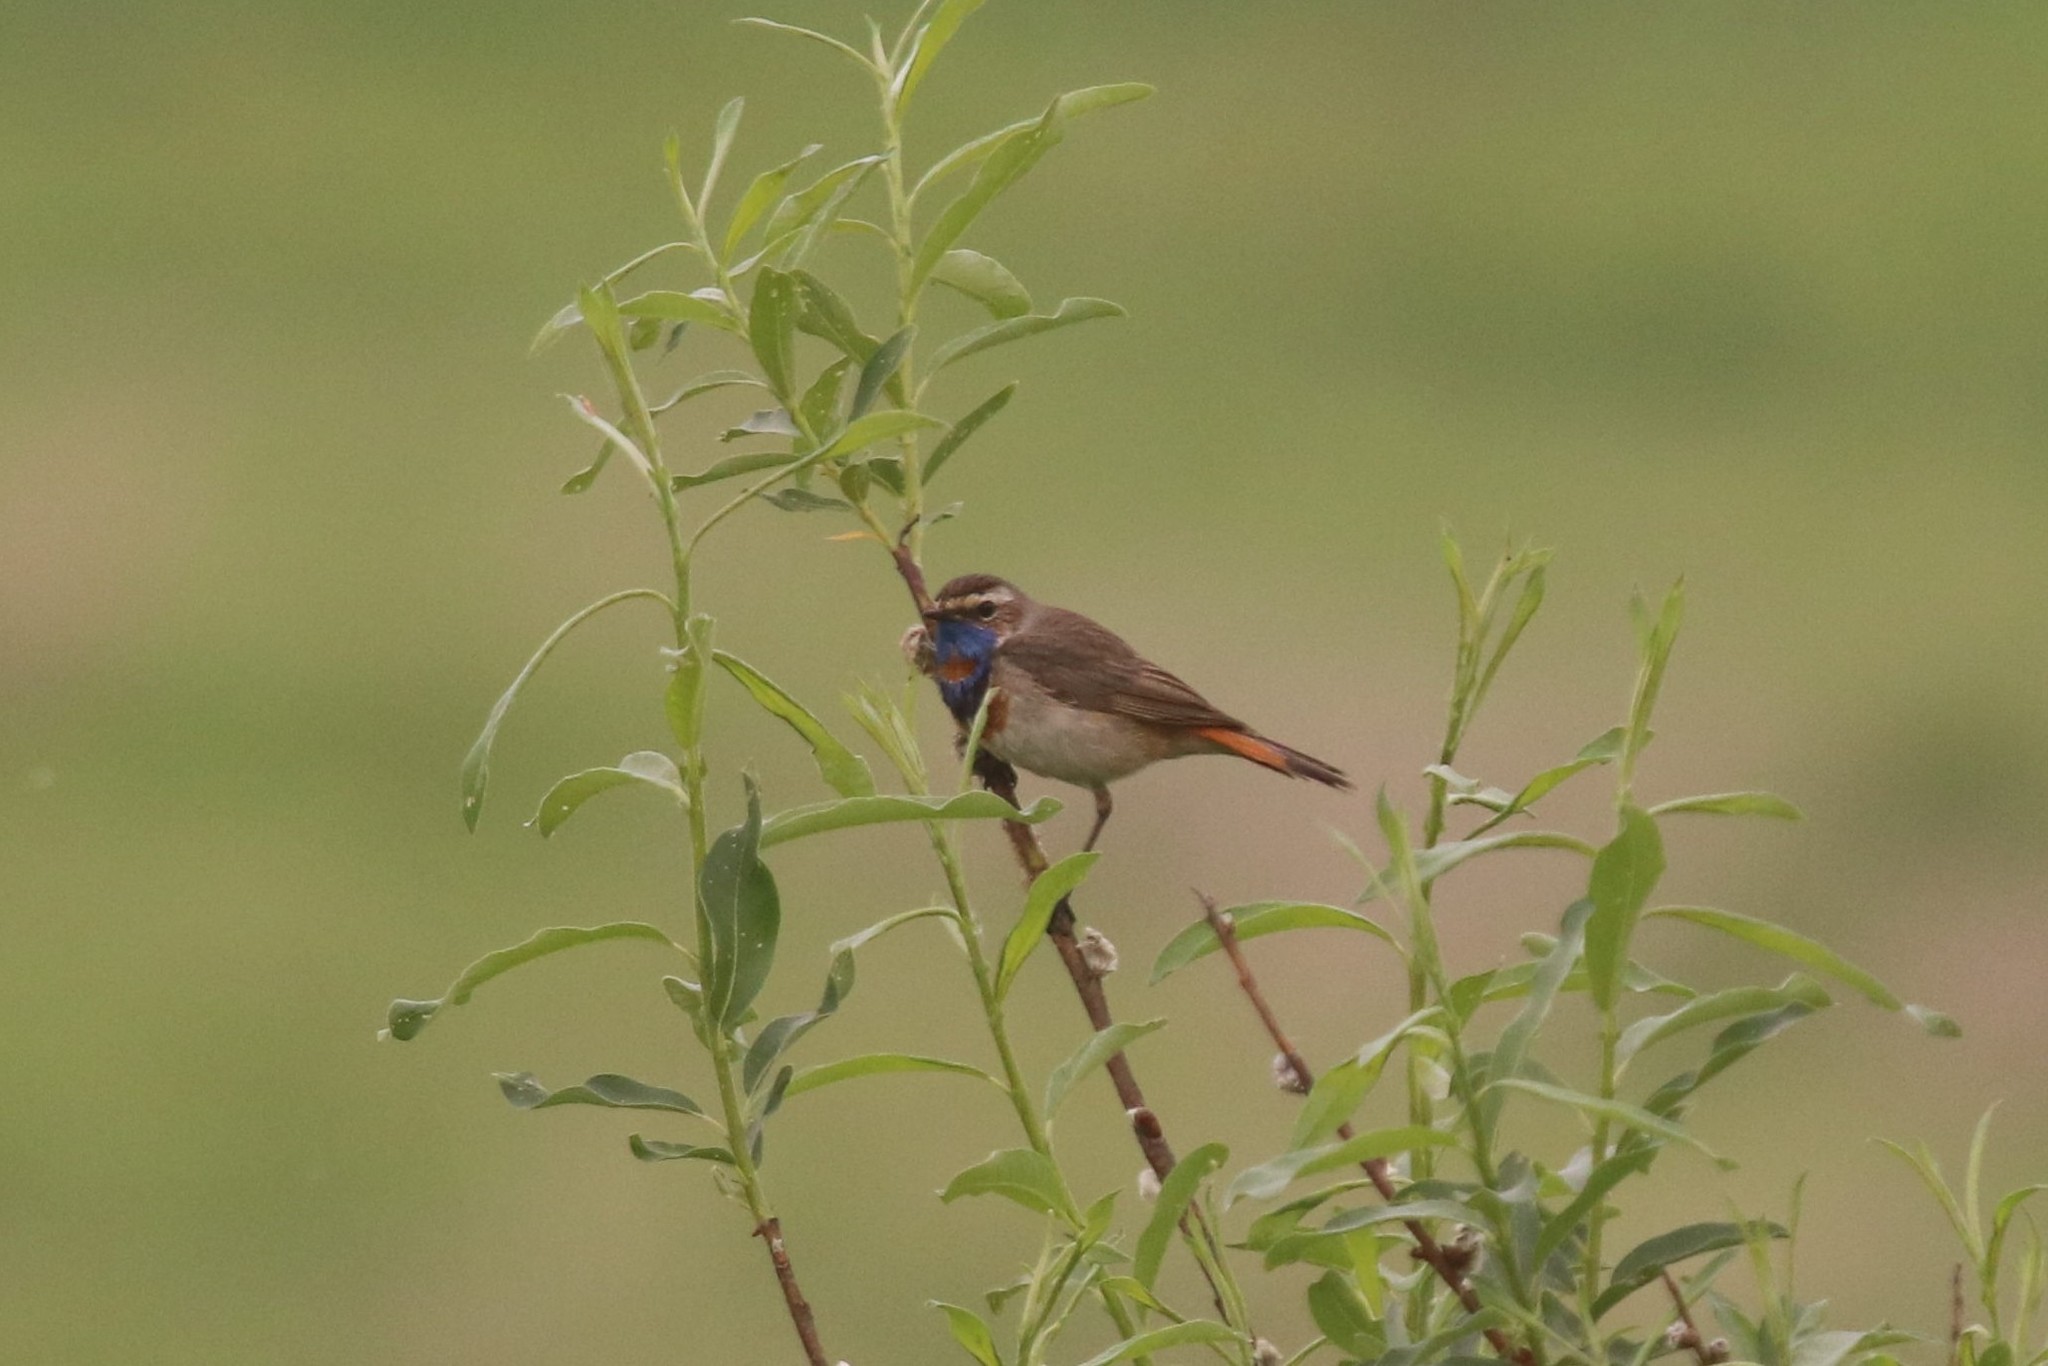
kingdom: Animalia
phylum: Chordata
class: Aves
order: Passeriformes
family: Muscicapidae
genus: Luscinia
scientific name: Luscinia svecica
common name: Bluethroat
